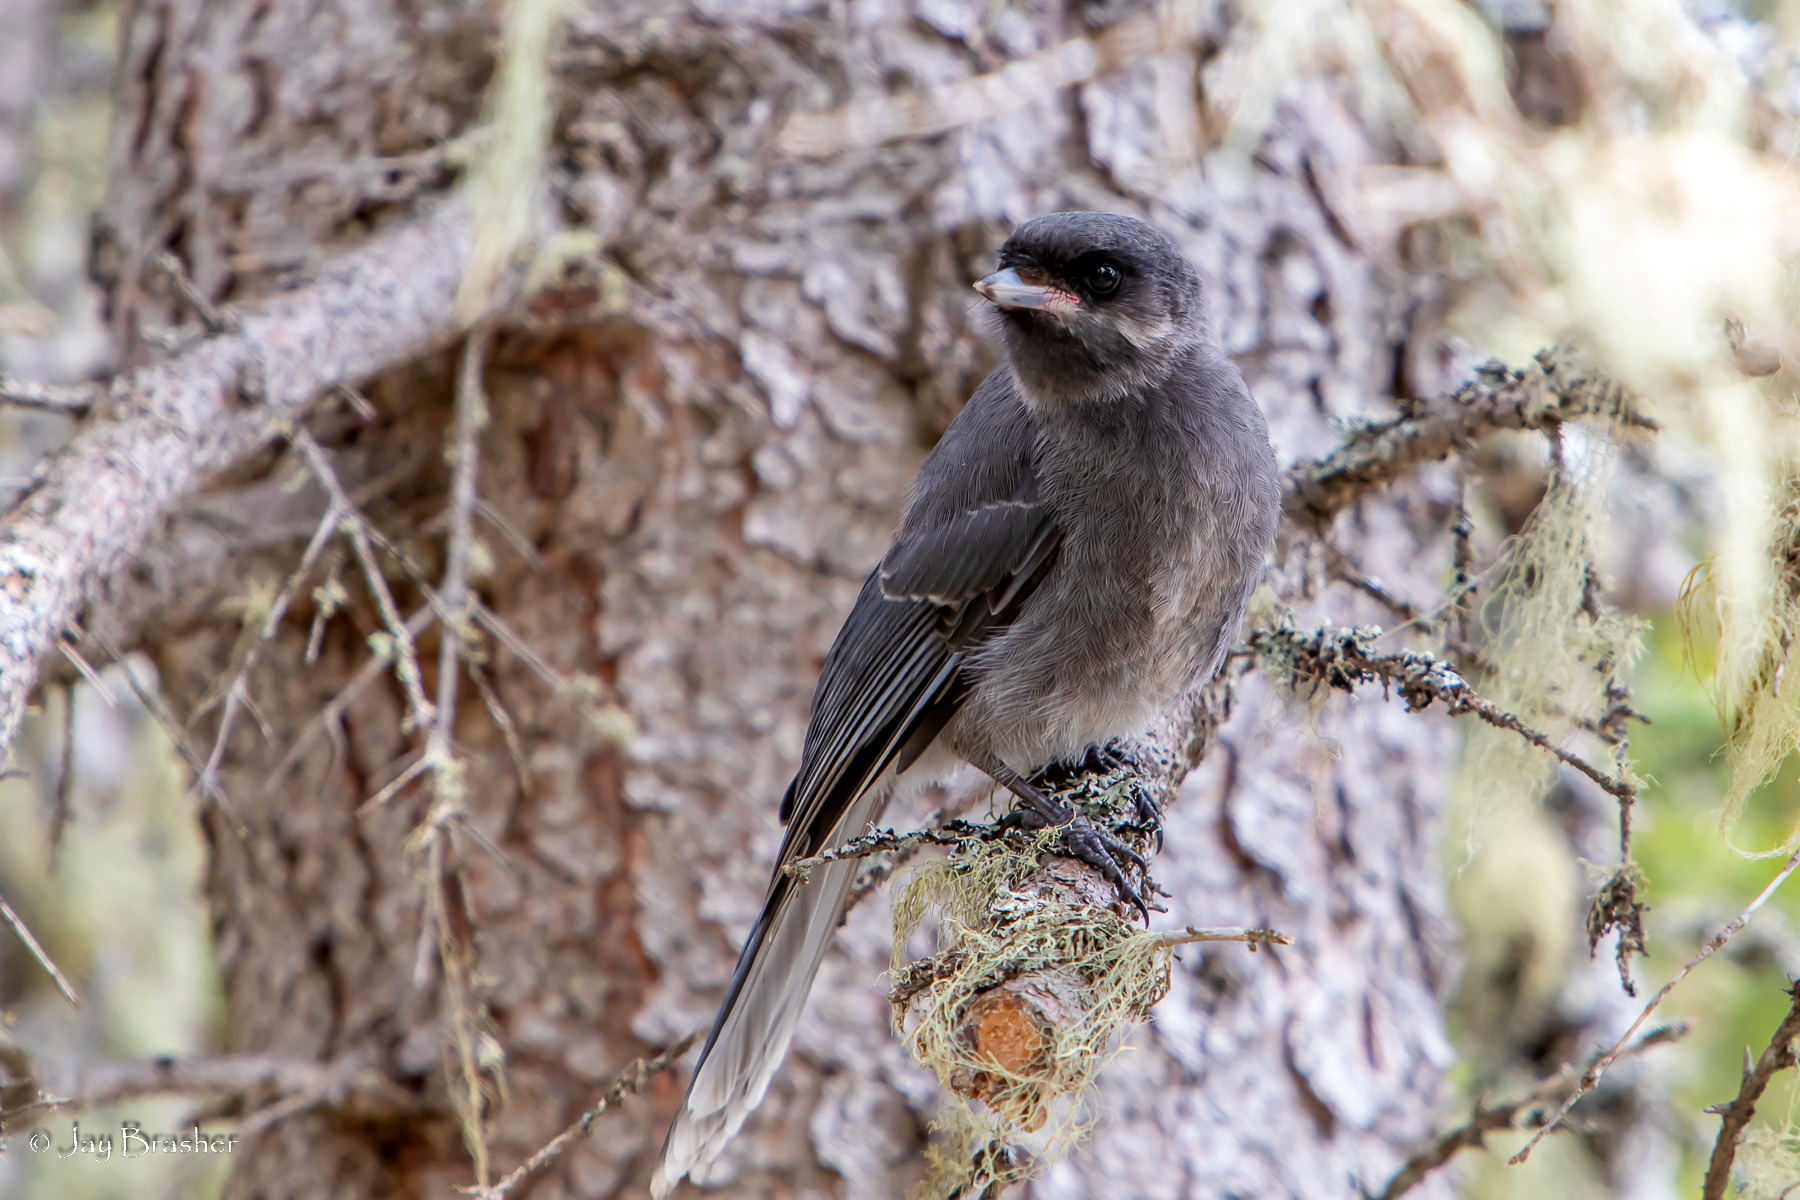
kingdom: Animalia
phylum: Chordata
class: Aves
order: Passeriformes
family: Corvidae
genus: Perisoreus
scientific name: Perisoreus canadensis
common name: Gray jay
